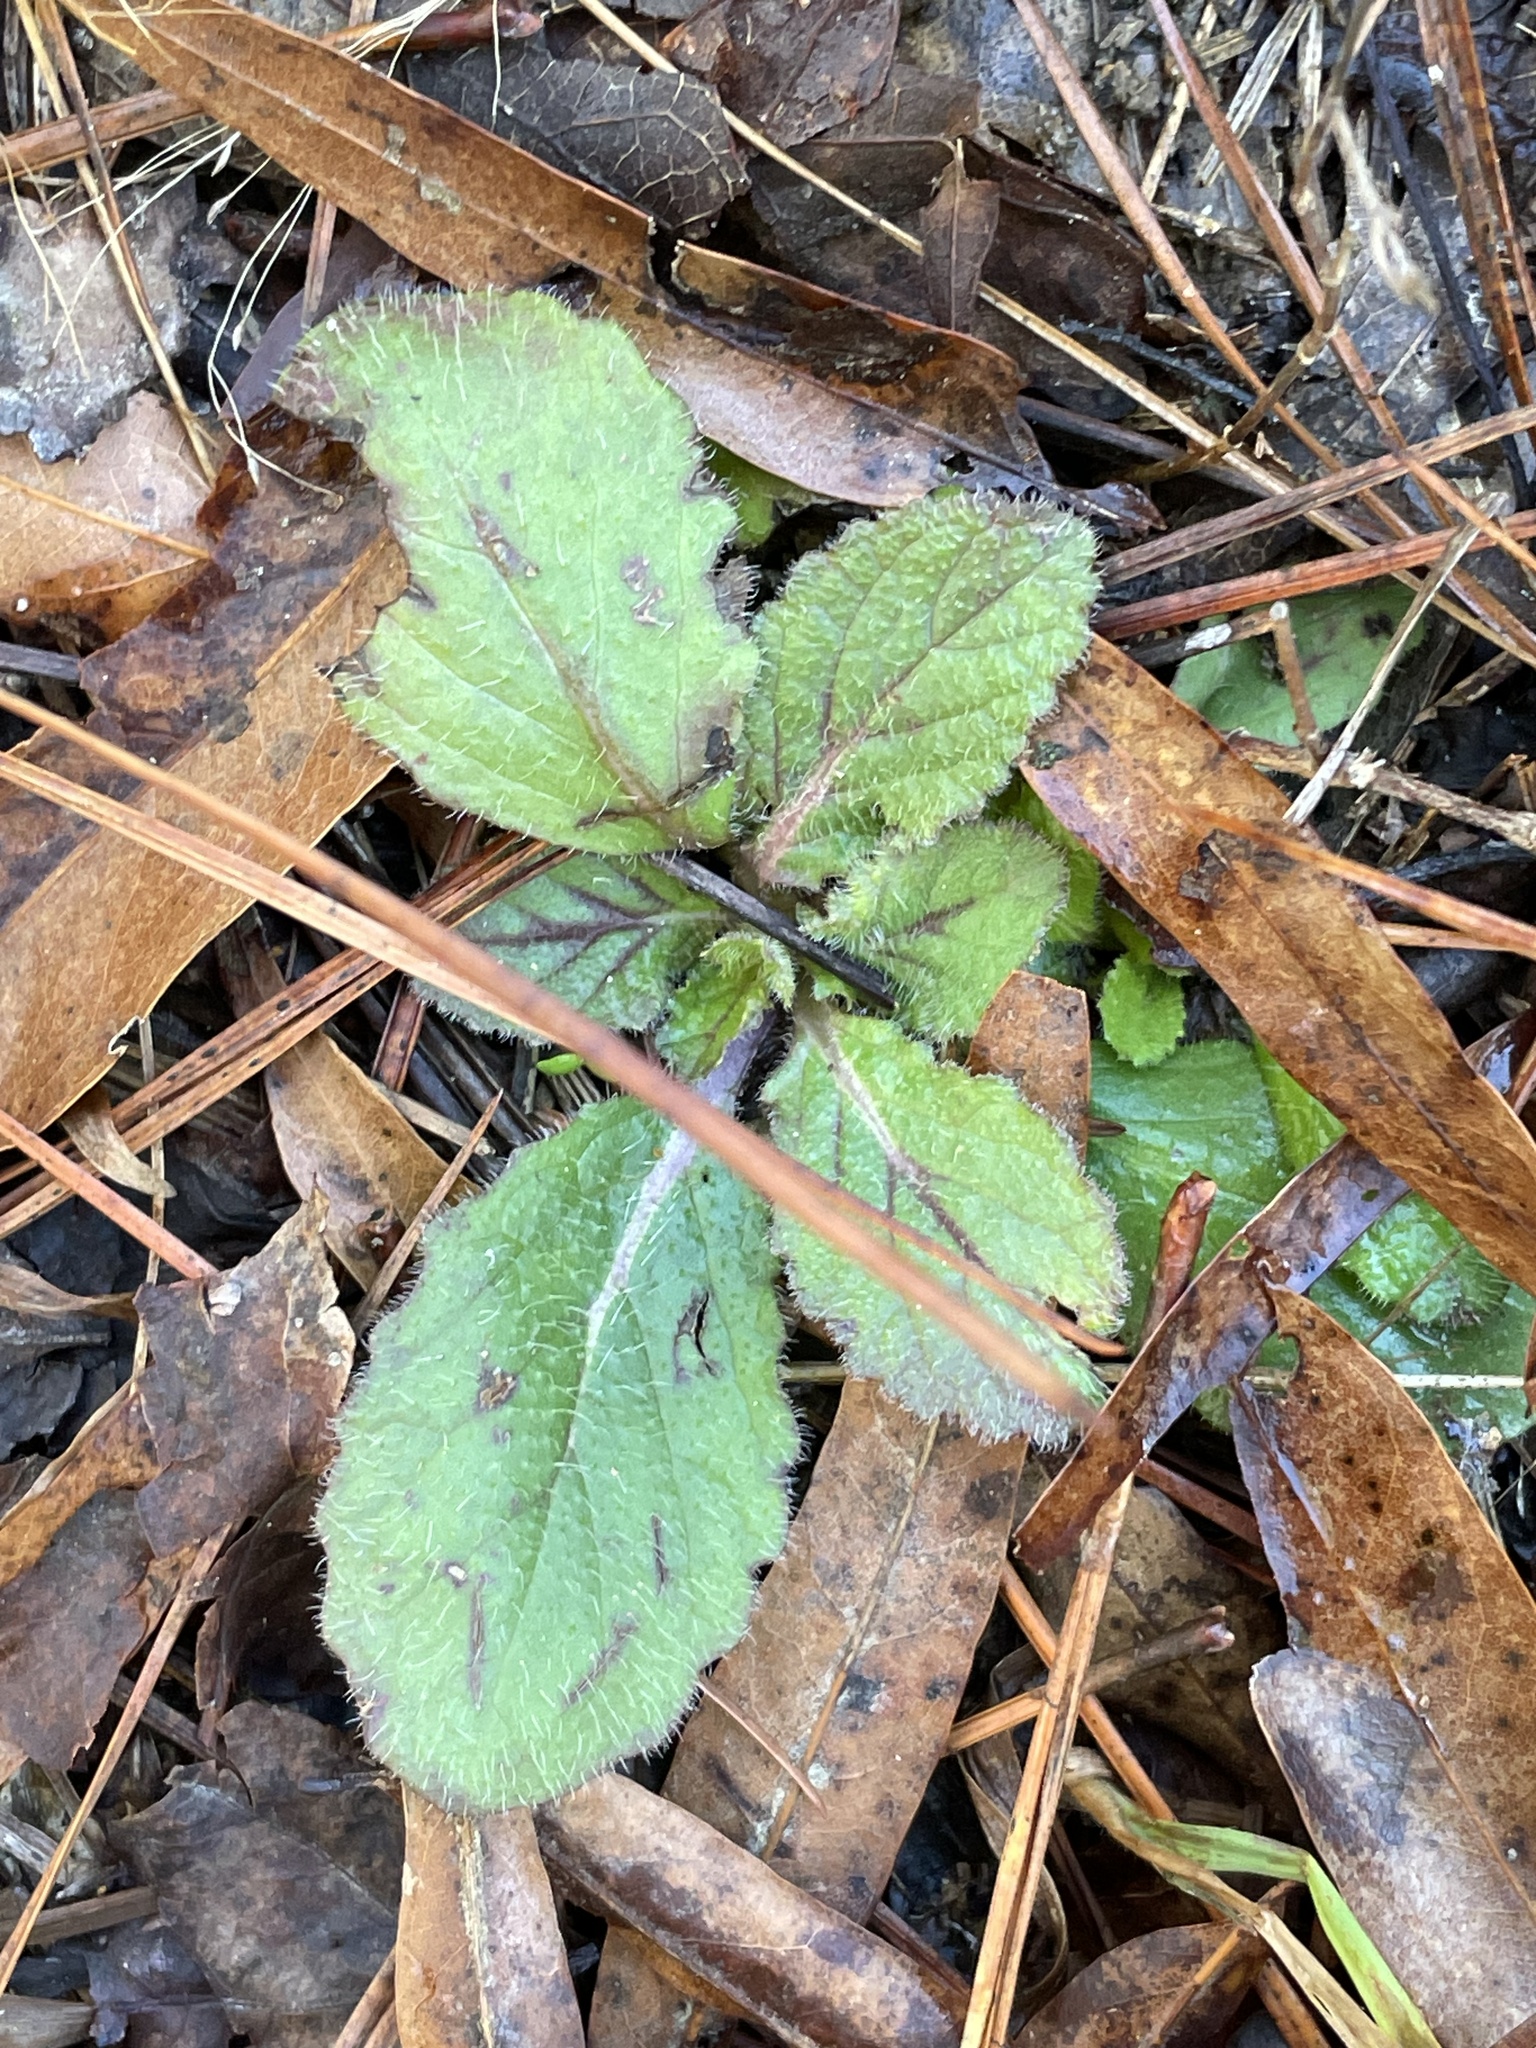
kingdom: Plantae
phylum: Tracheophyta
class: Magnoliopsida
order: Lamiales
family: Lamiaceae
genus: Salvia
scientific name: Salvia lyrata
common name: Cancerweed
